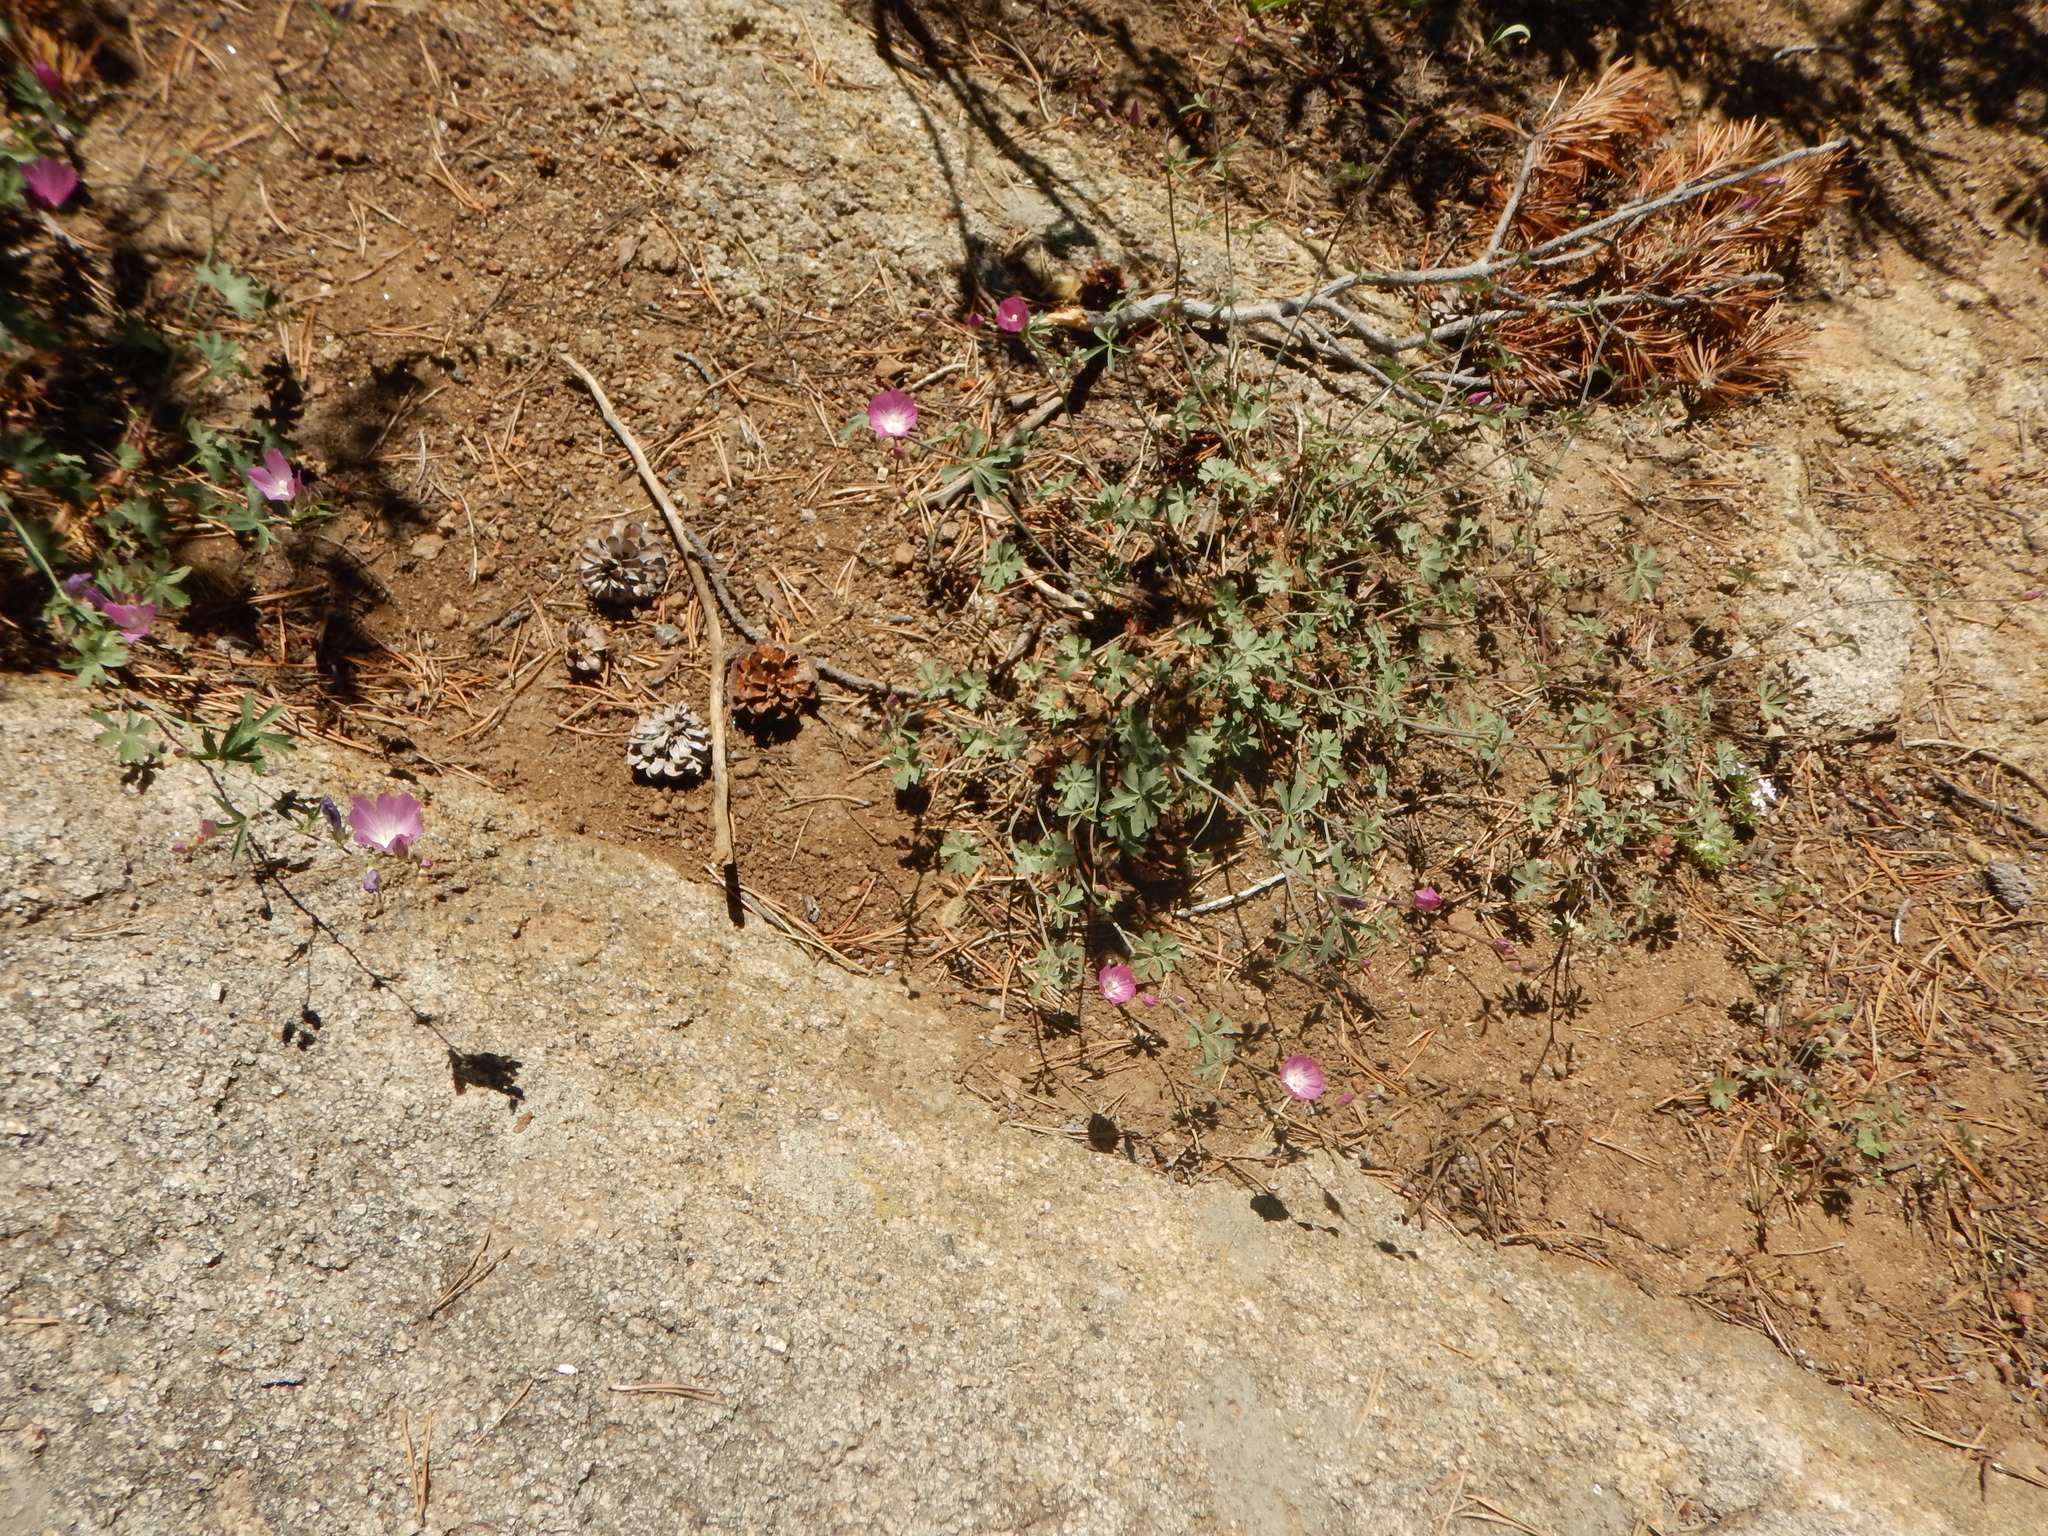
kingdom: Plantae
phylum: Tracheophyta
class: Magnoliopsida
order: Malvales
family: Malvaceae
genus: Sidalcea
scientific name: Sidalcea glaucescens
